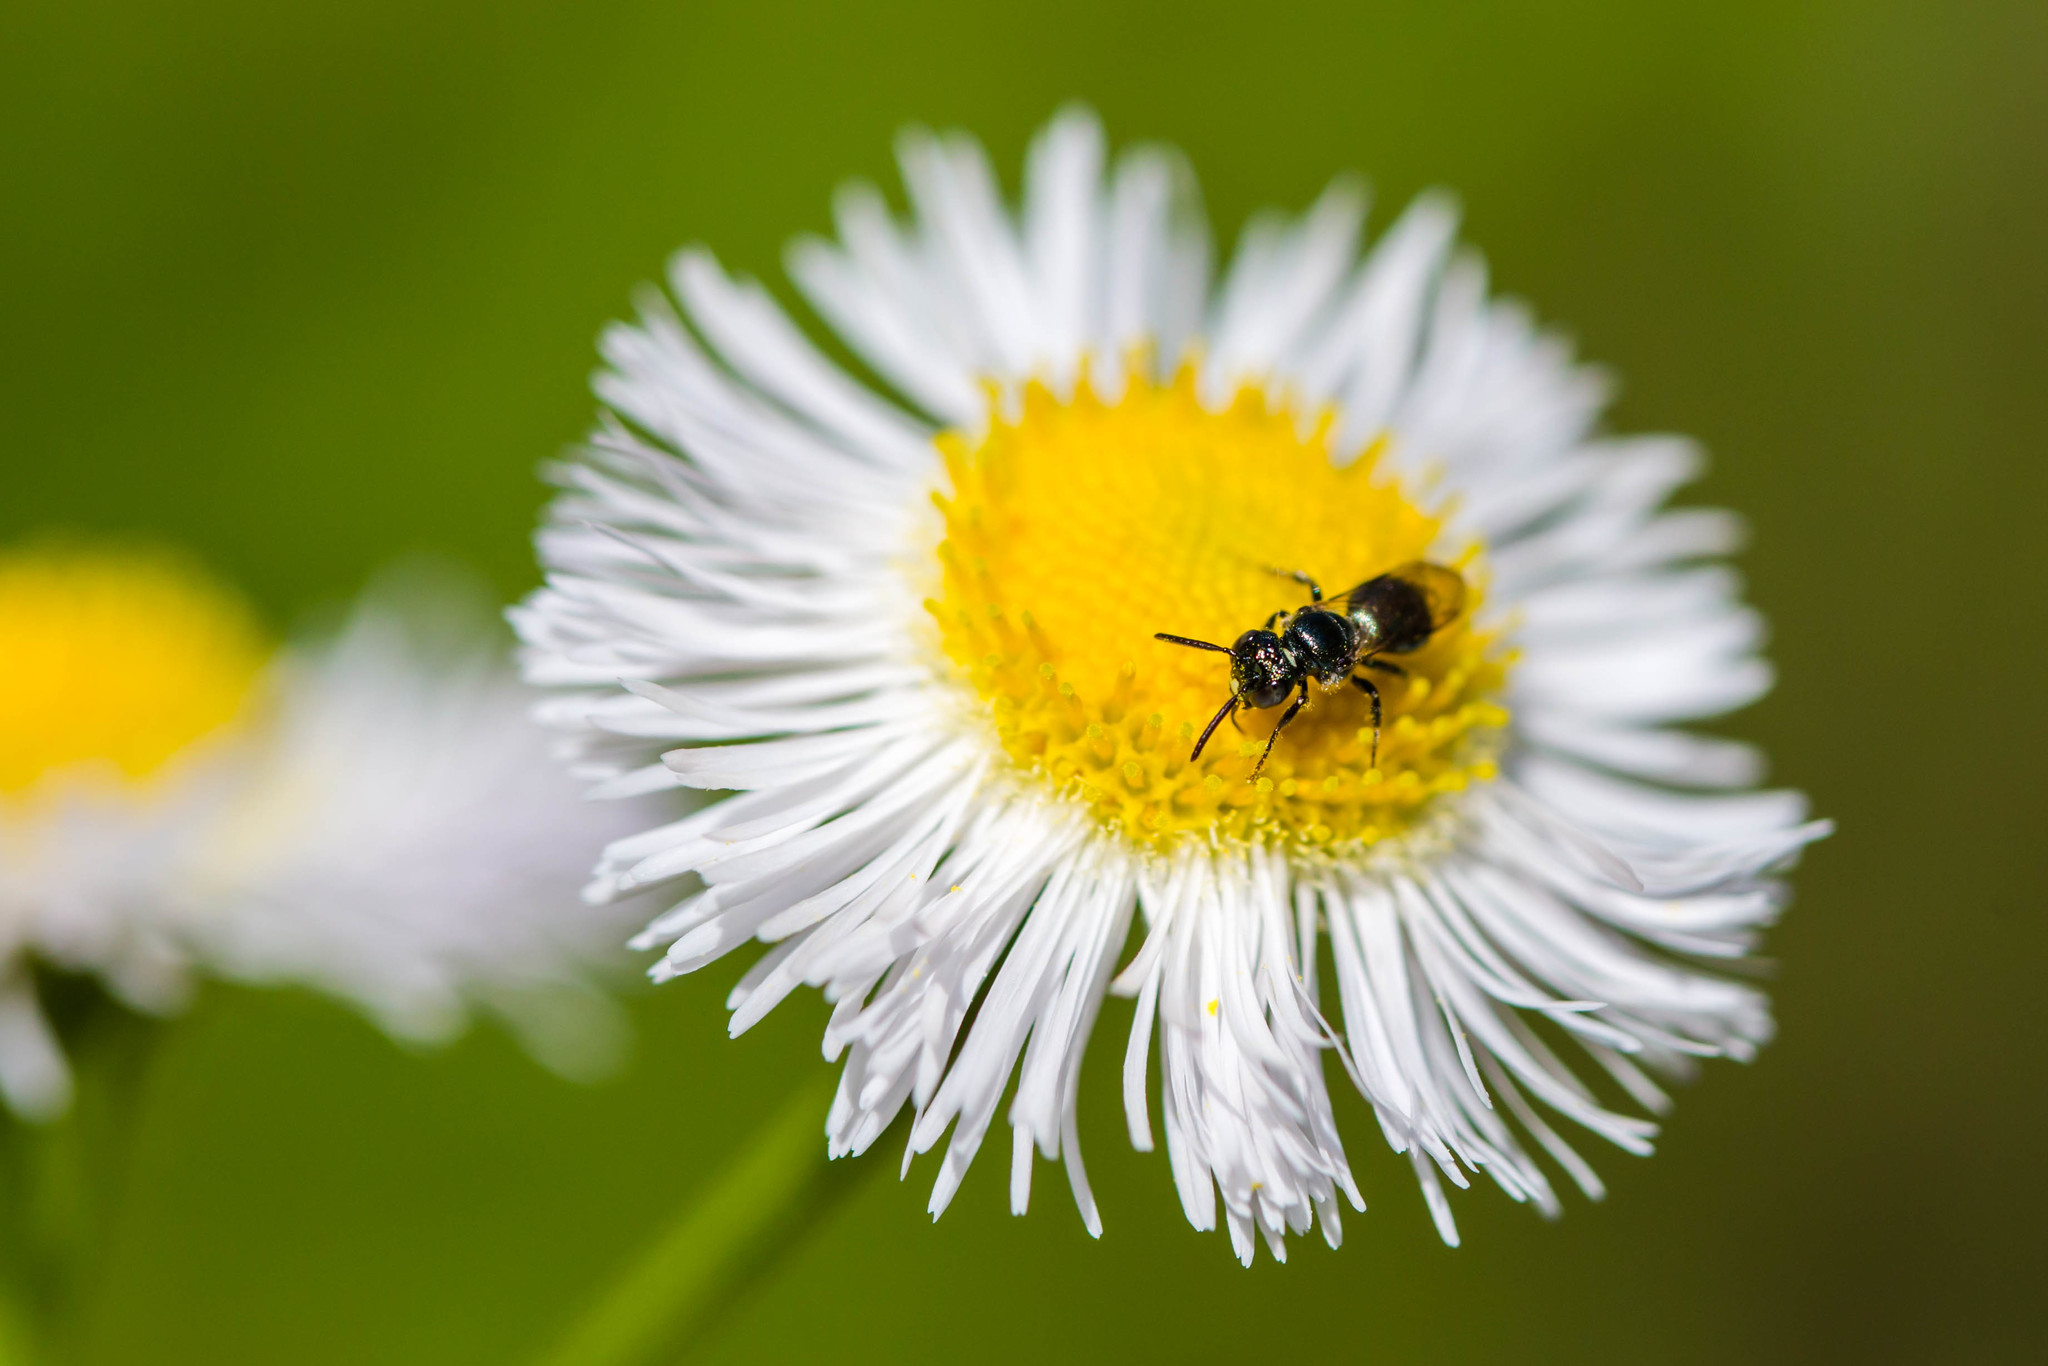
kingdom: Animalia
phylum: Arthropoda
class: Insecta
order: Hymenoptera
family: Apidae
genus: Ceratina
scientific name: Ceratina strenua
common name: Nimble carpenter bee
